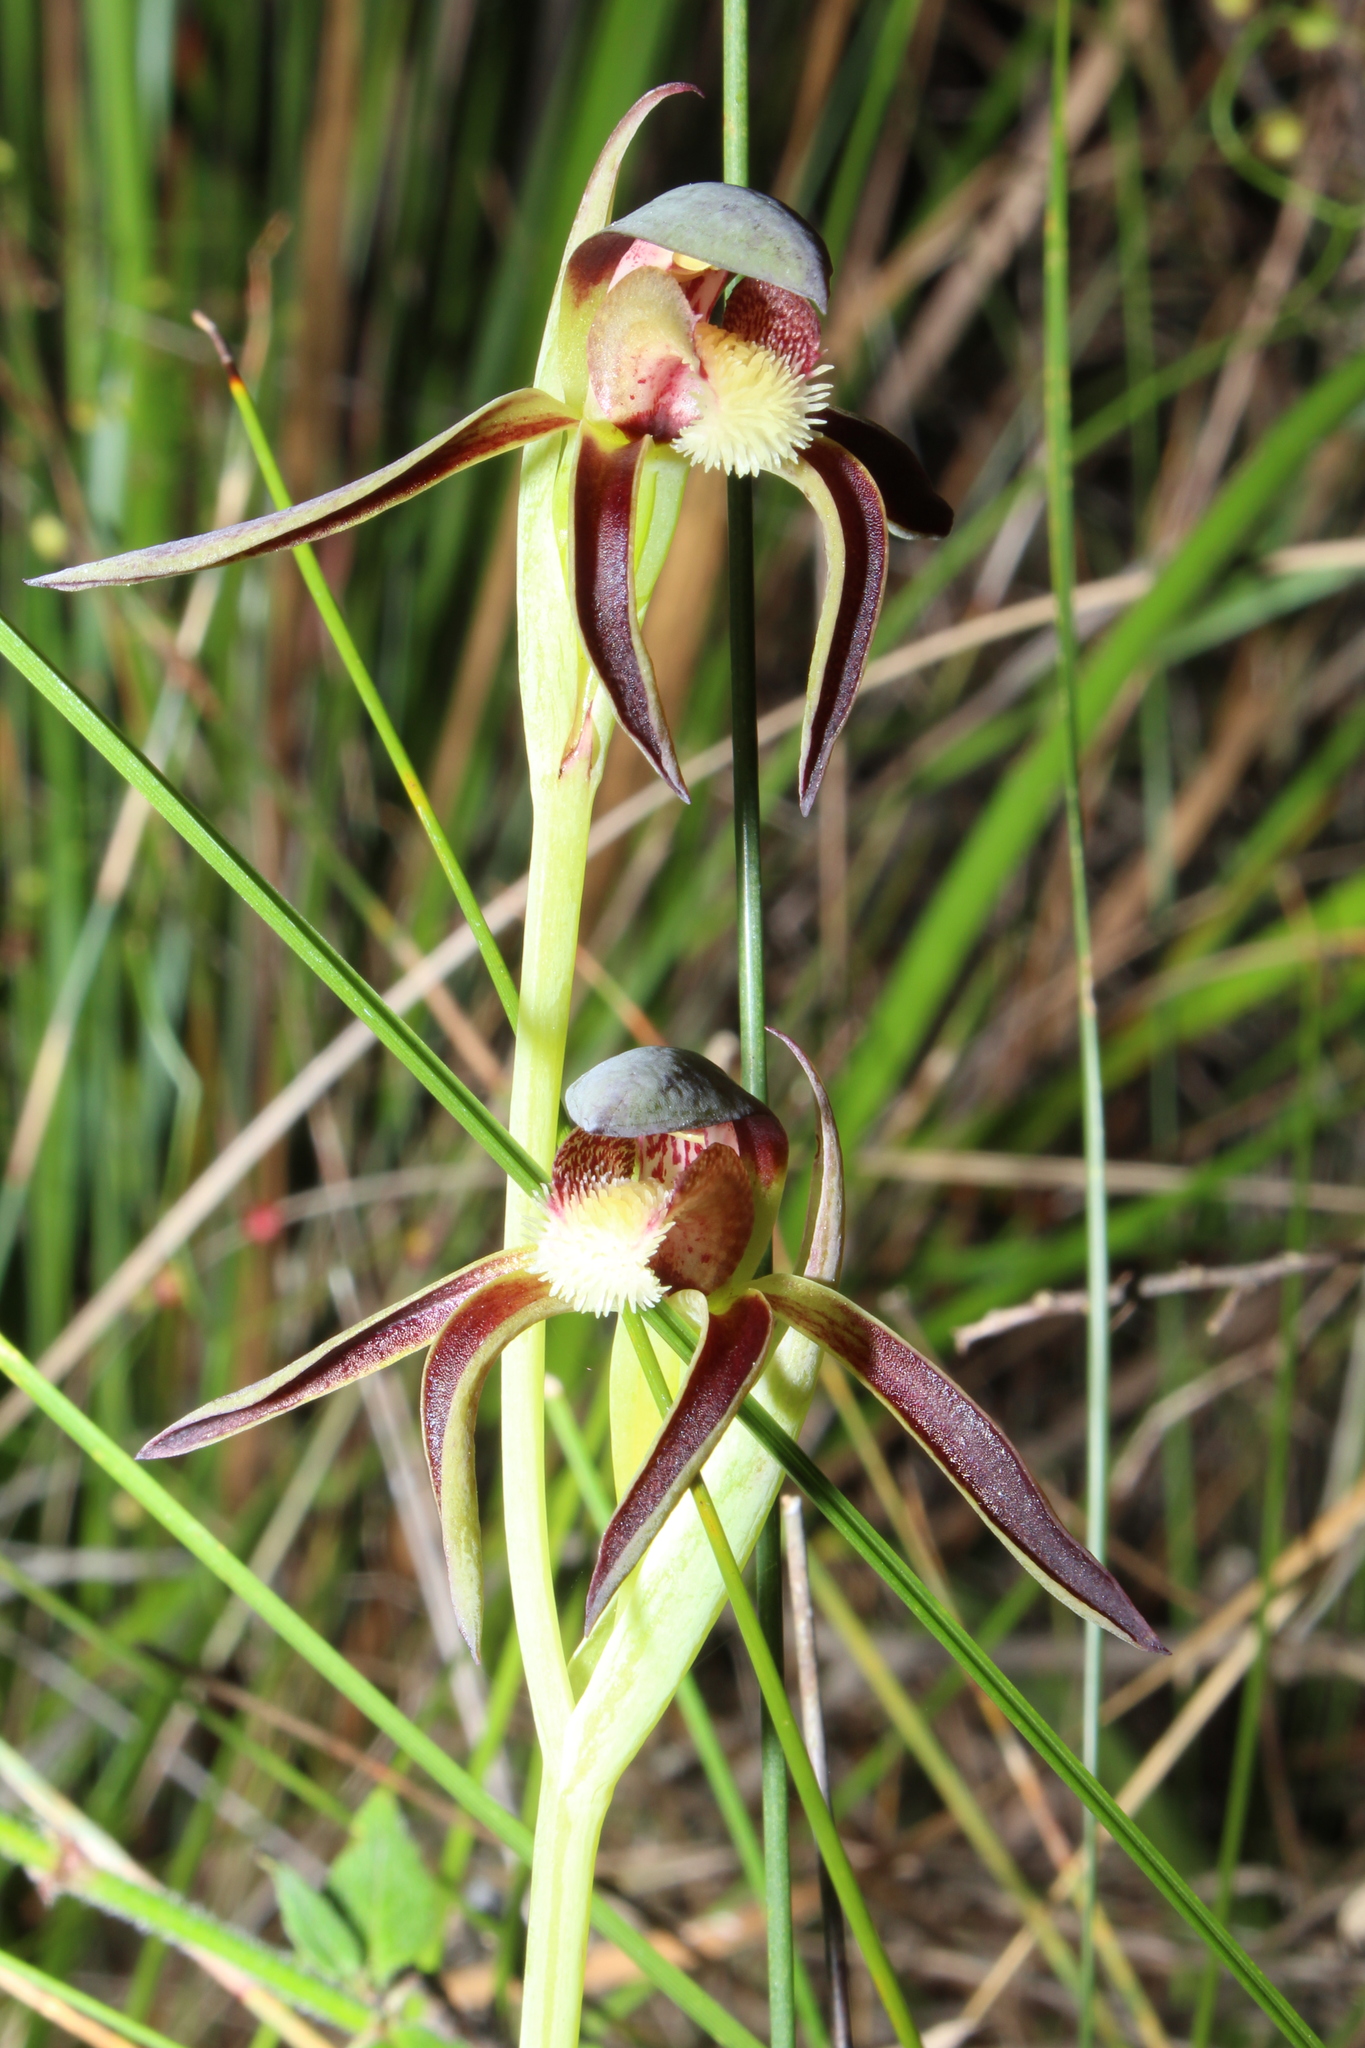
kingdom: Plantae
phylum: Tracheophyta
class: Liliopsida
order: Asparagales
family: Orchidaceae
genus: Lyperanthus
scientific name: Lyperanthus serratus
